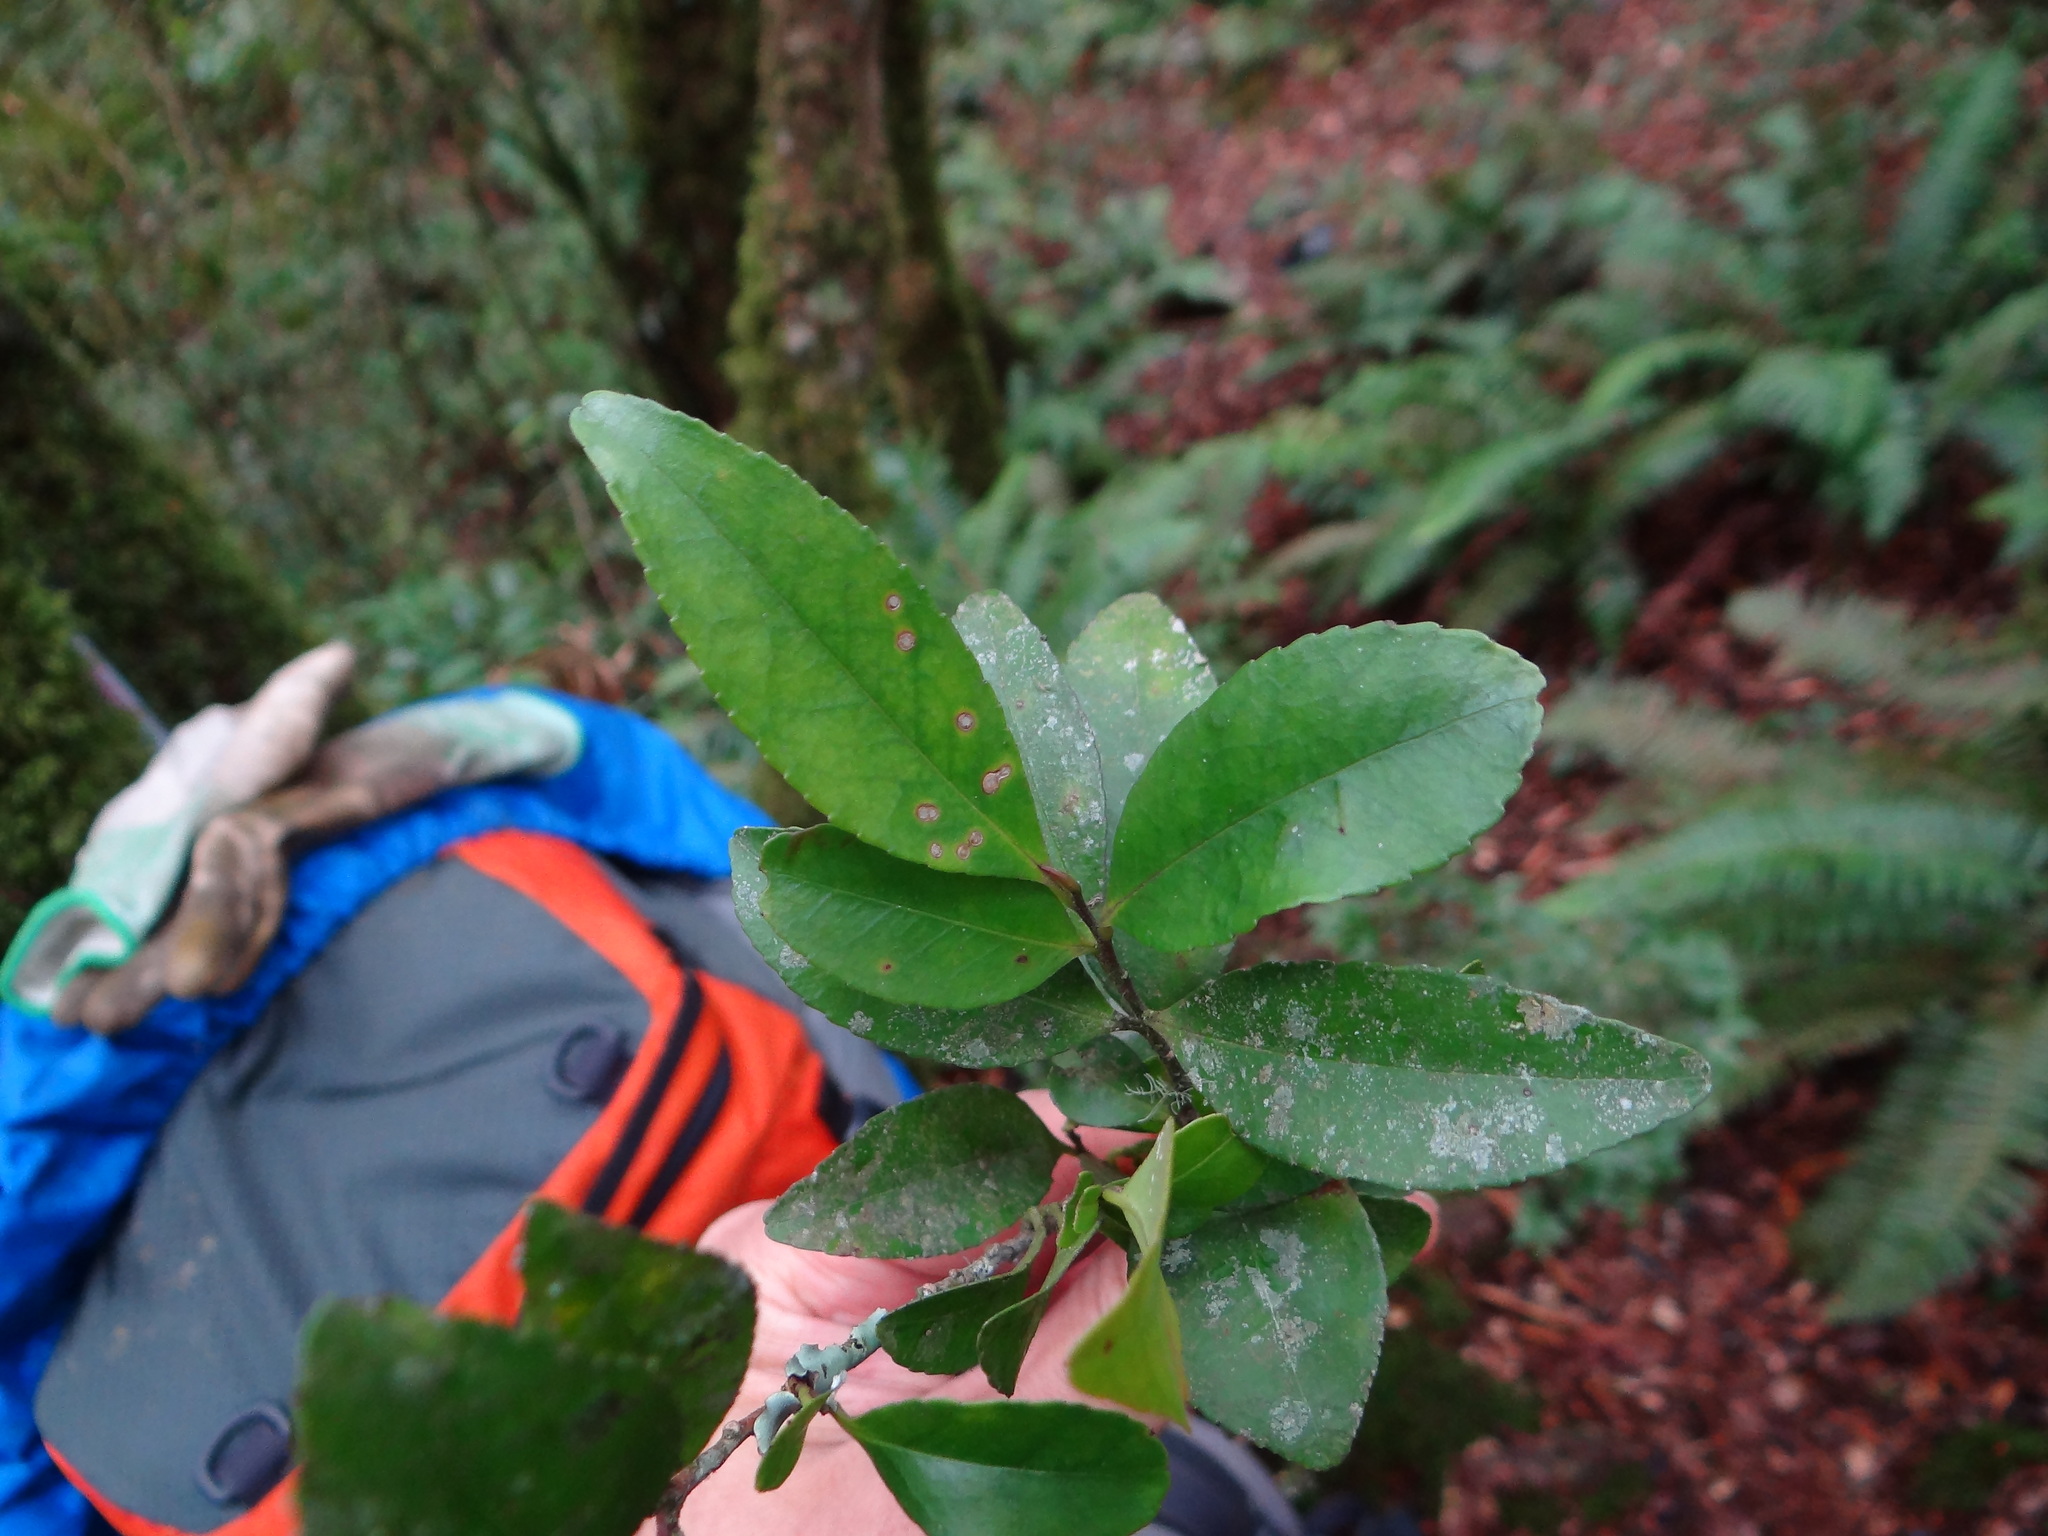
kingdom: Plantae
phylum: Tracheophyta
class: Magnoliopsida
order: Ericales
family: Pentaphylacaceae
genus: Eurya
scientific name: Eurya nitida
